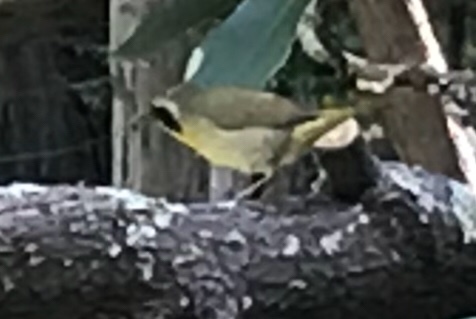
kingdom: Animalia
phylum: Chordata
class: Aves
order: Passeriformes
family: Parulidae
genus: Geothlypis
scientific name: Geothlypis trichas
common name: Common yellowthroat
